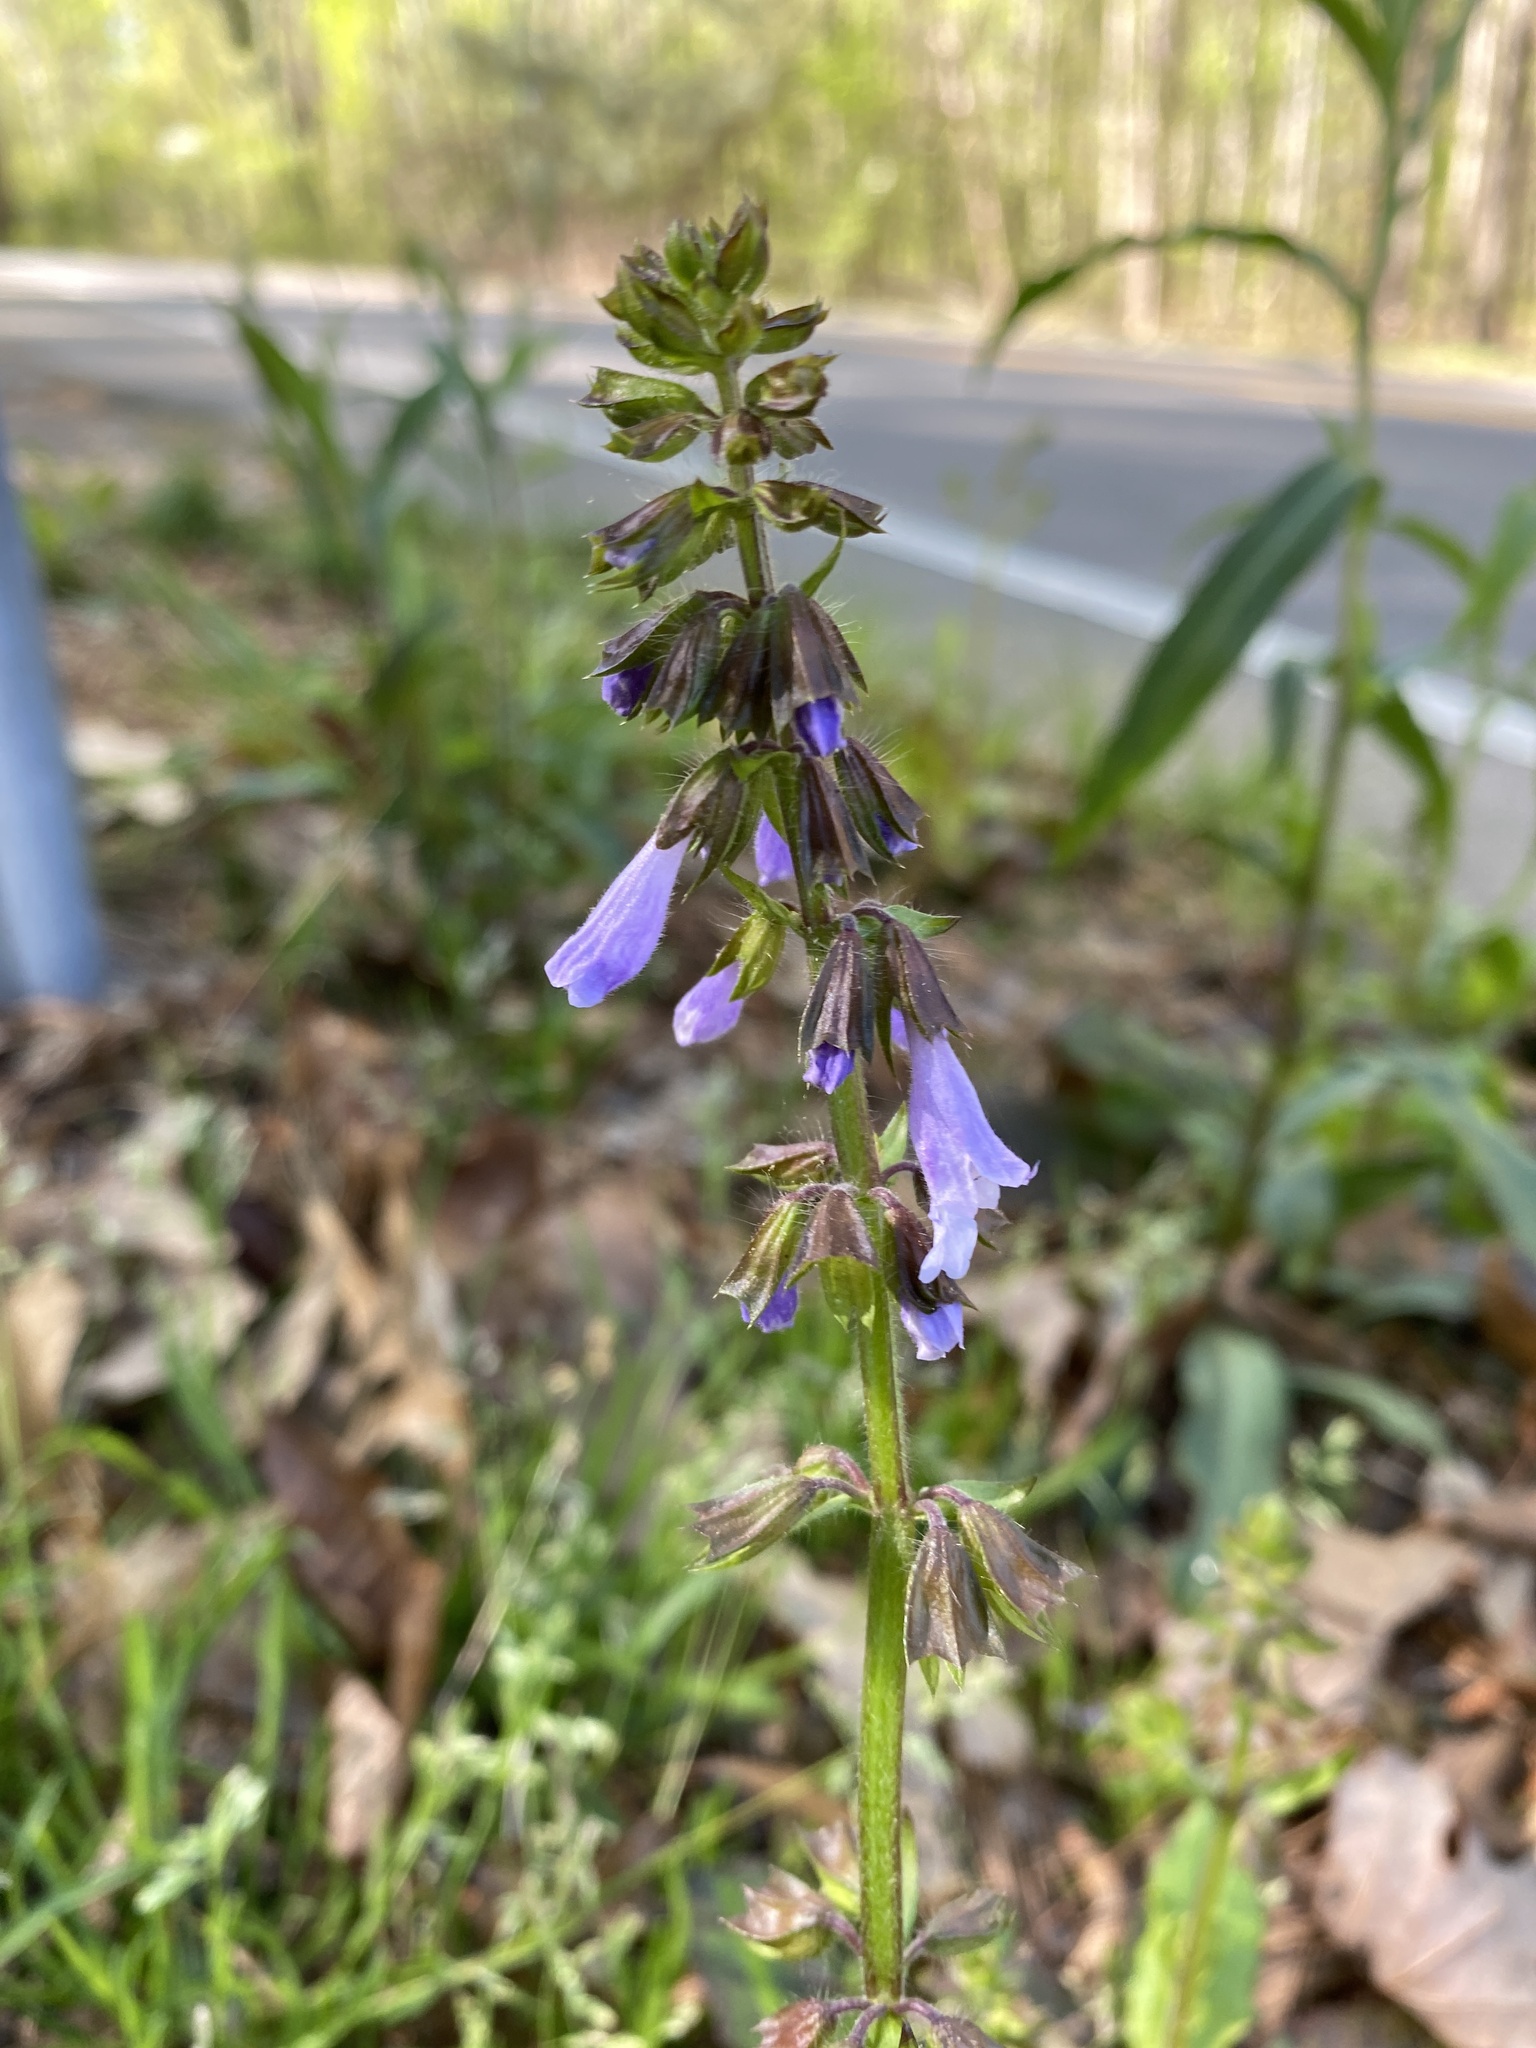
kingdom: Plantae
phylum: Tracheophyta
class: Magnoliopsida
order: Lamiales
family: Lamiaceae
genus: Salvia
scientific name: Salvia lyrata
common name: Cancerweed
